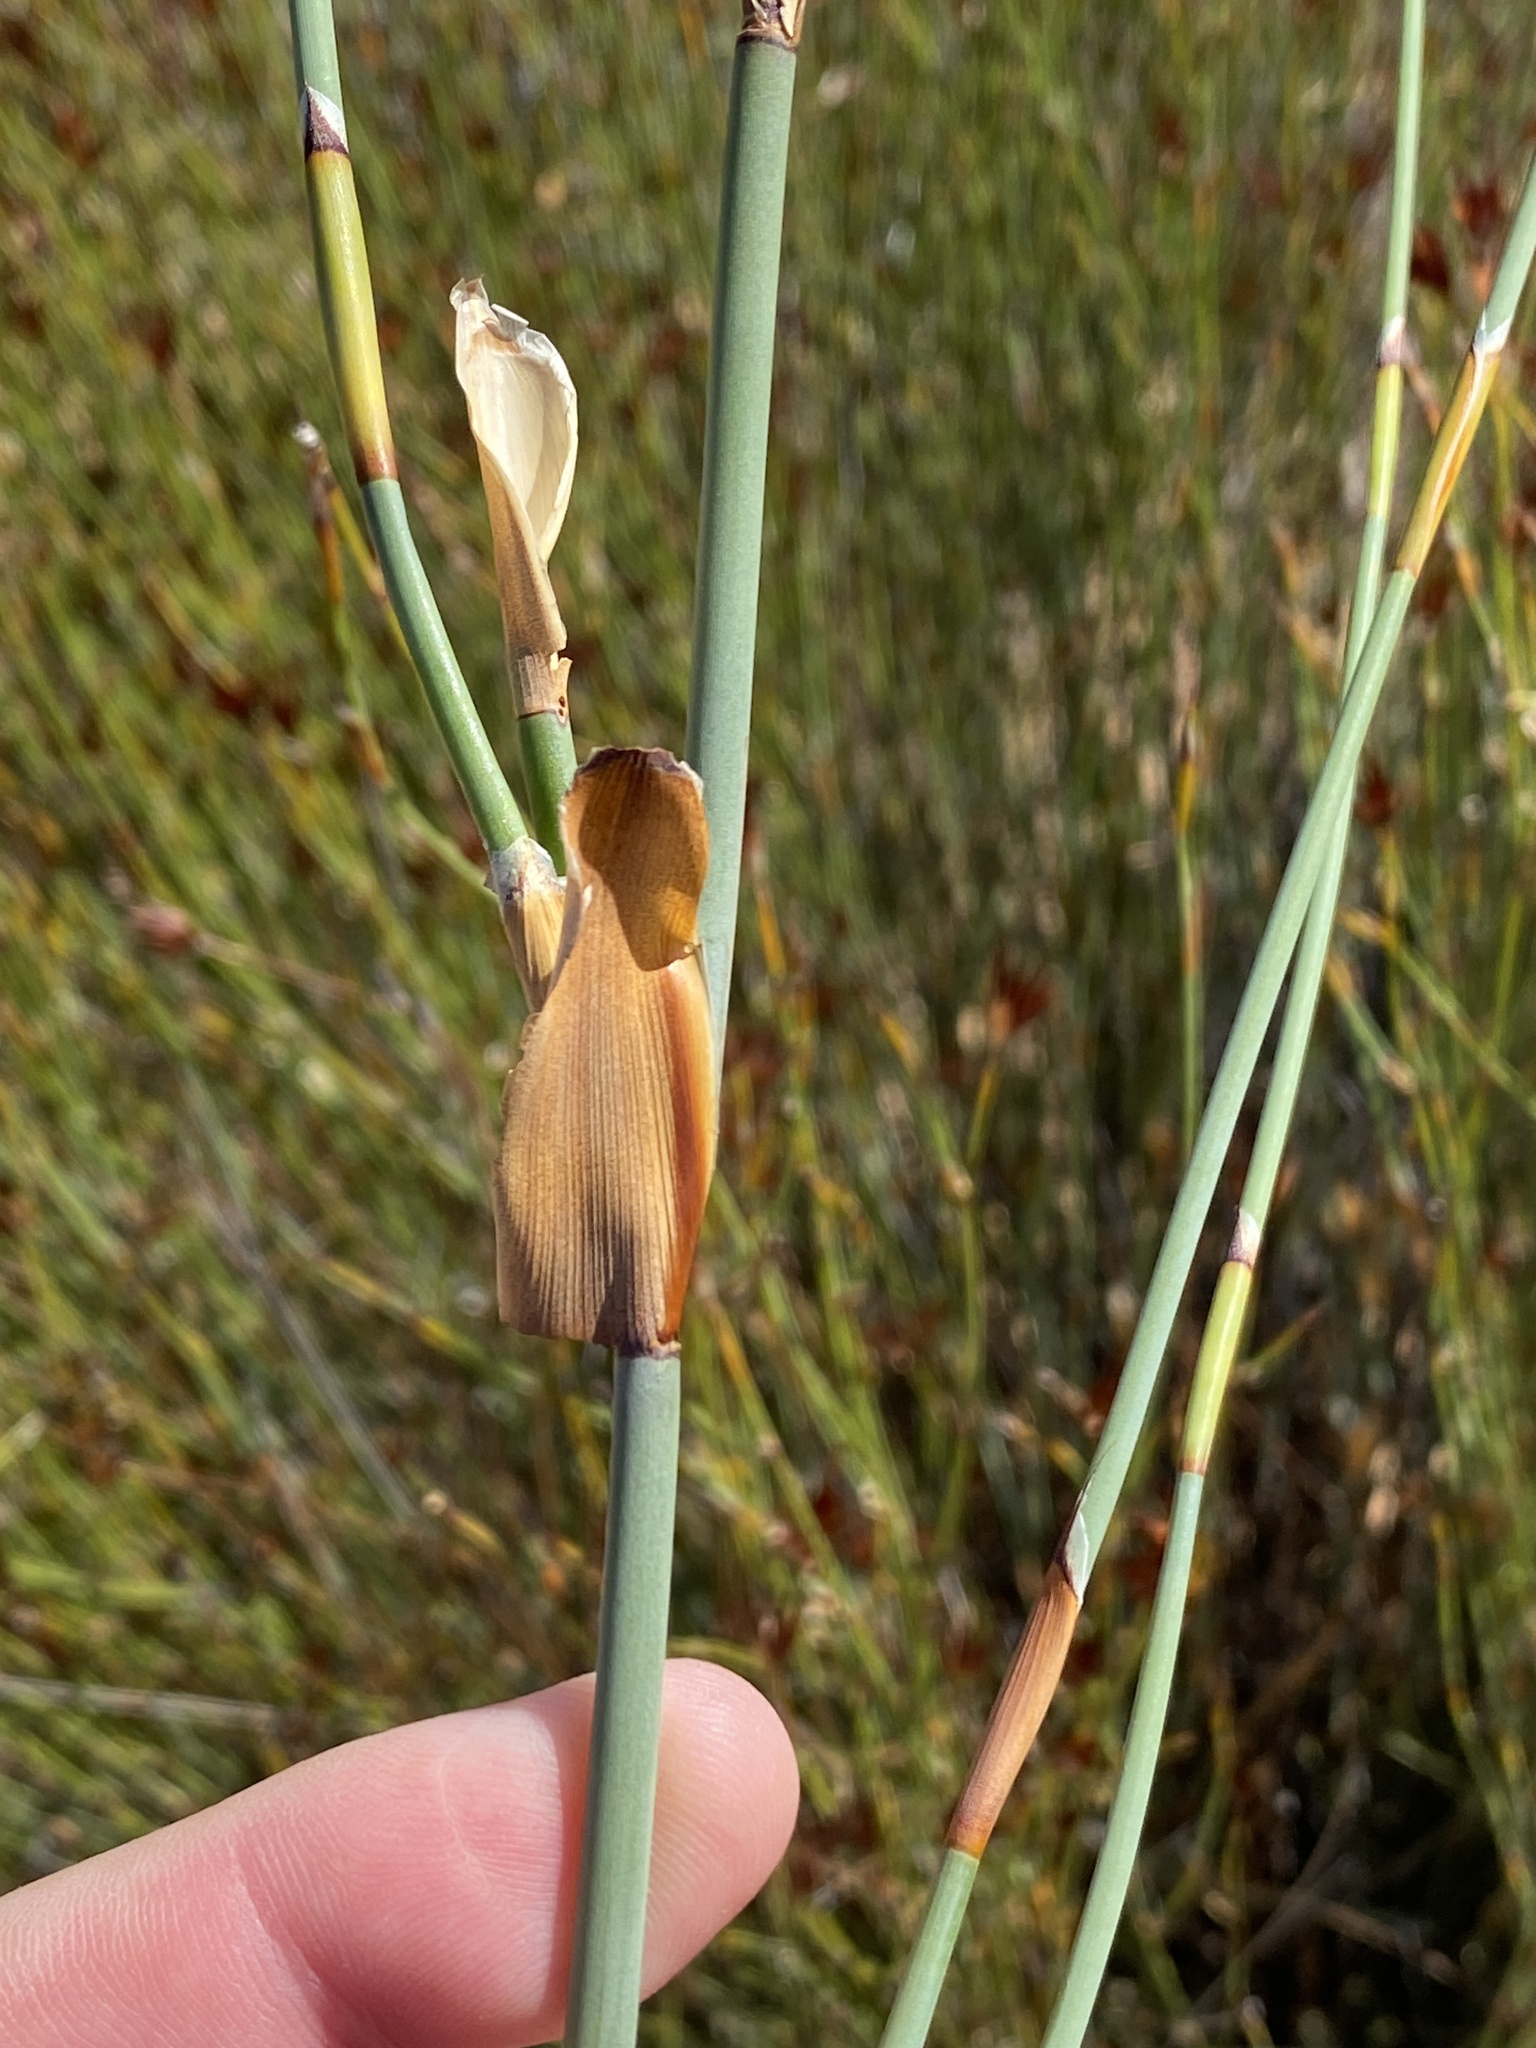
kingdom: Plantae
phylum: Tracheophyta
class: Liliopsida
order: Poales
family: Restionaceae
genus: Willdenowia
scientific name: Willdenowia incurvata
